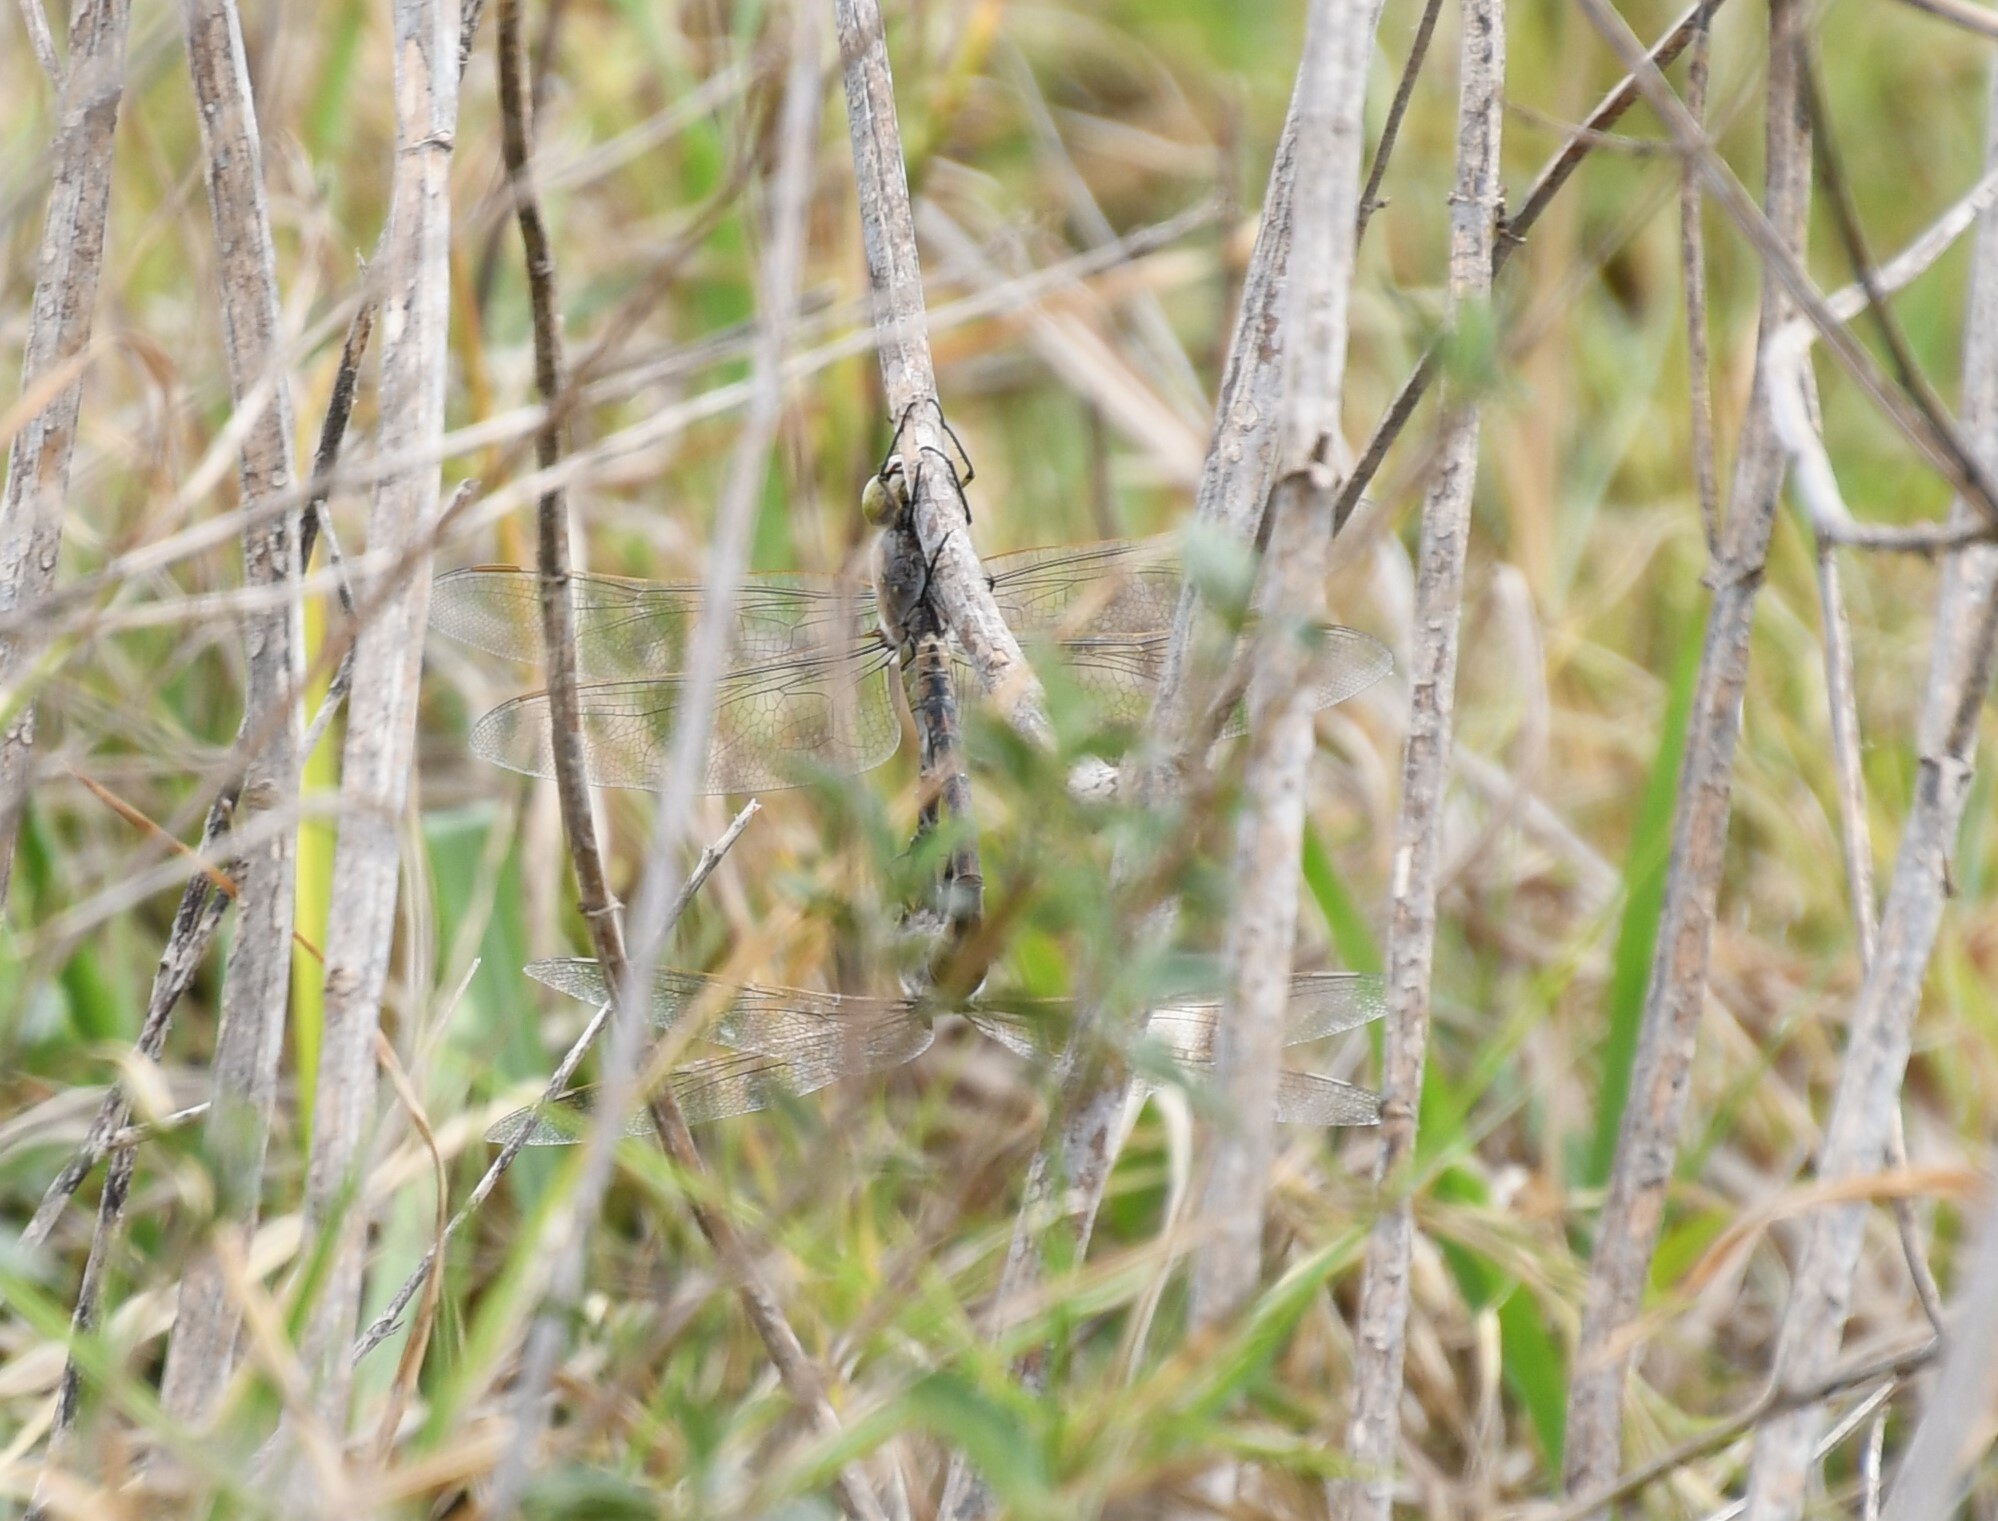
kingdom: Animalia
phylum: Arthropoda
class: Insecta
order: Odonata
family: Aeshnidae
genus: Anax
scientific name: Anax papuensis
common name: Australian emperor
